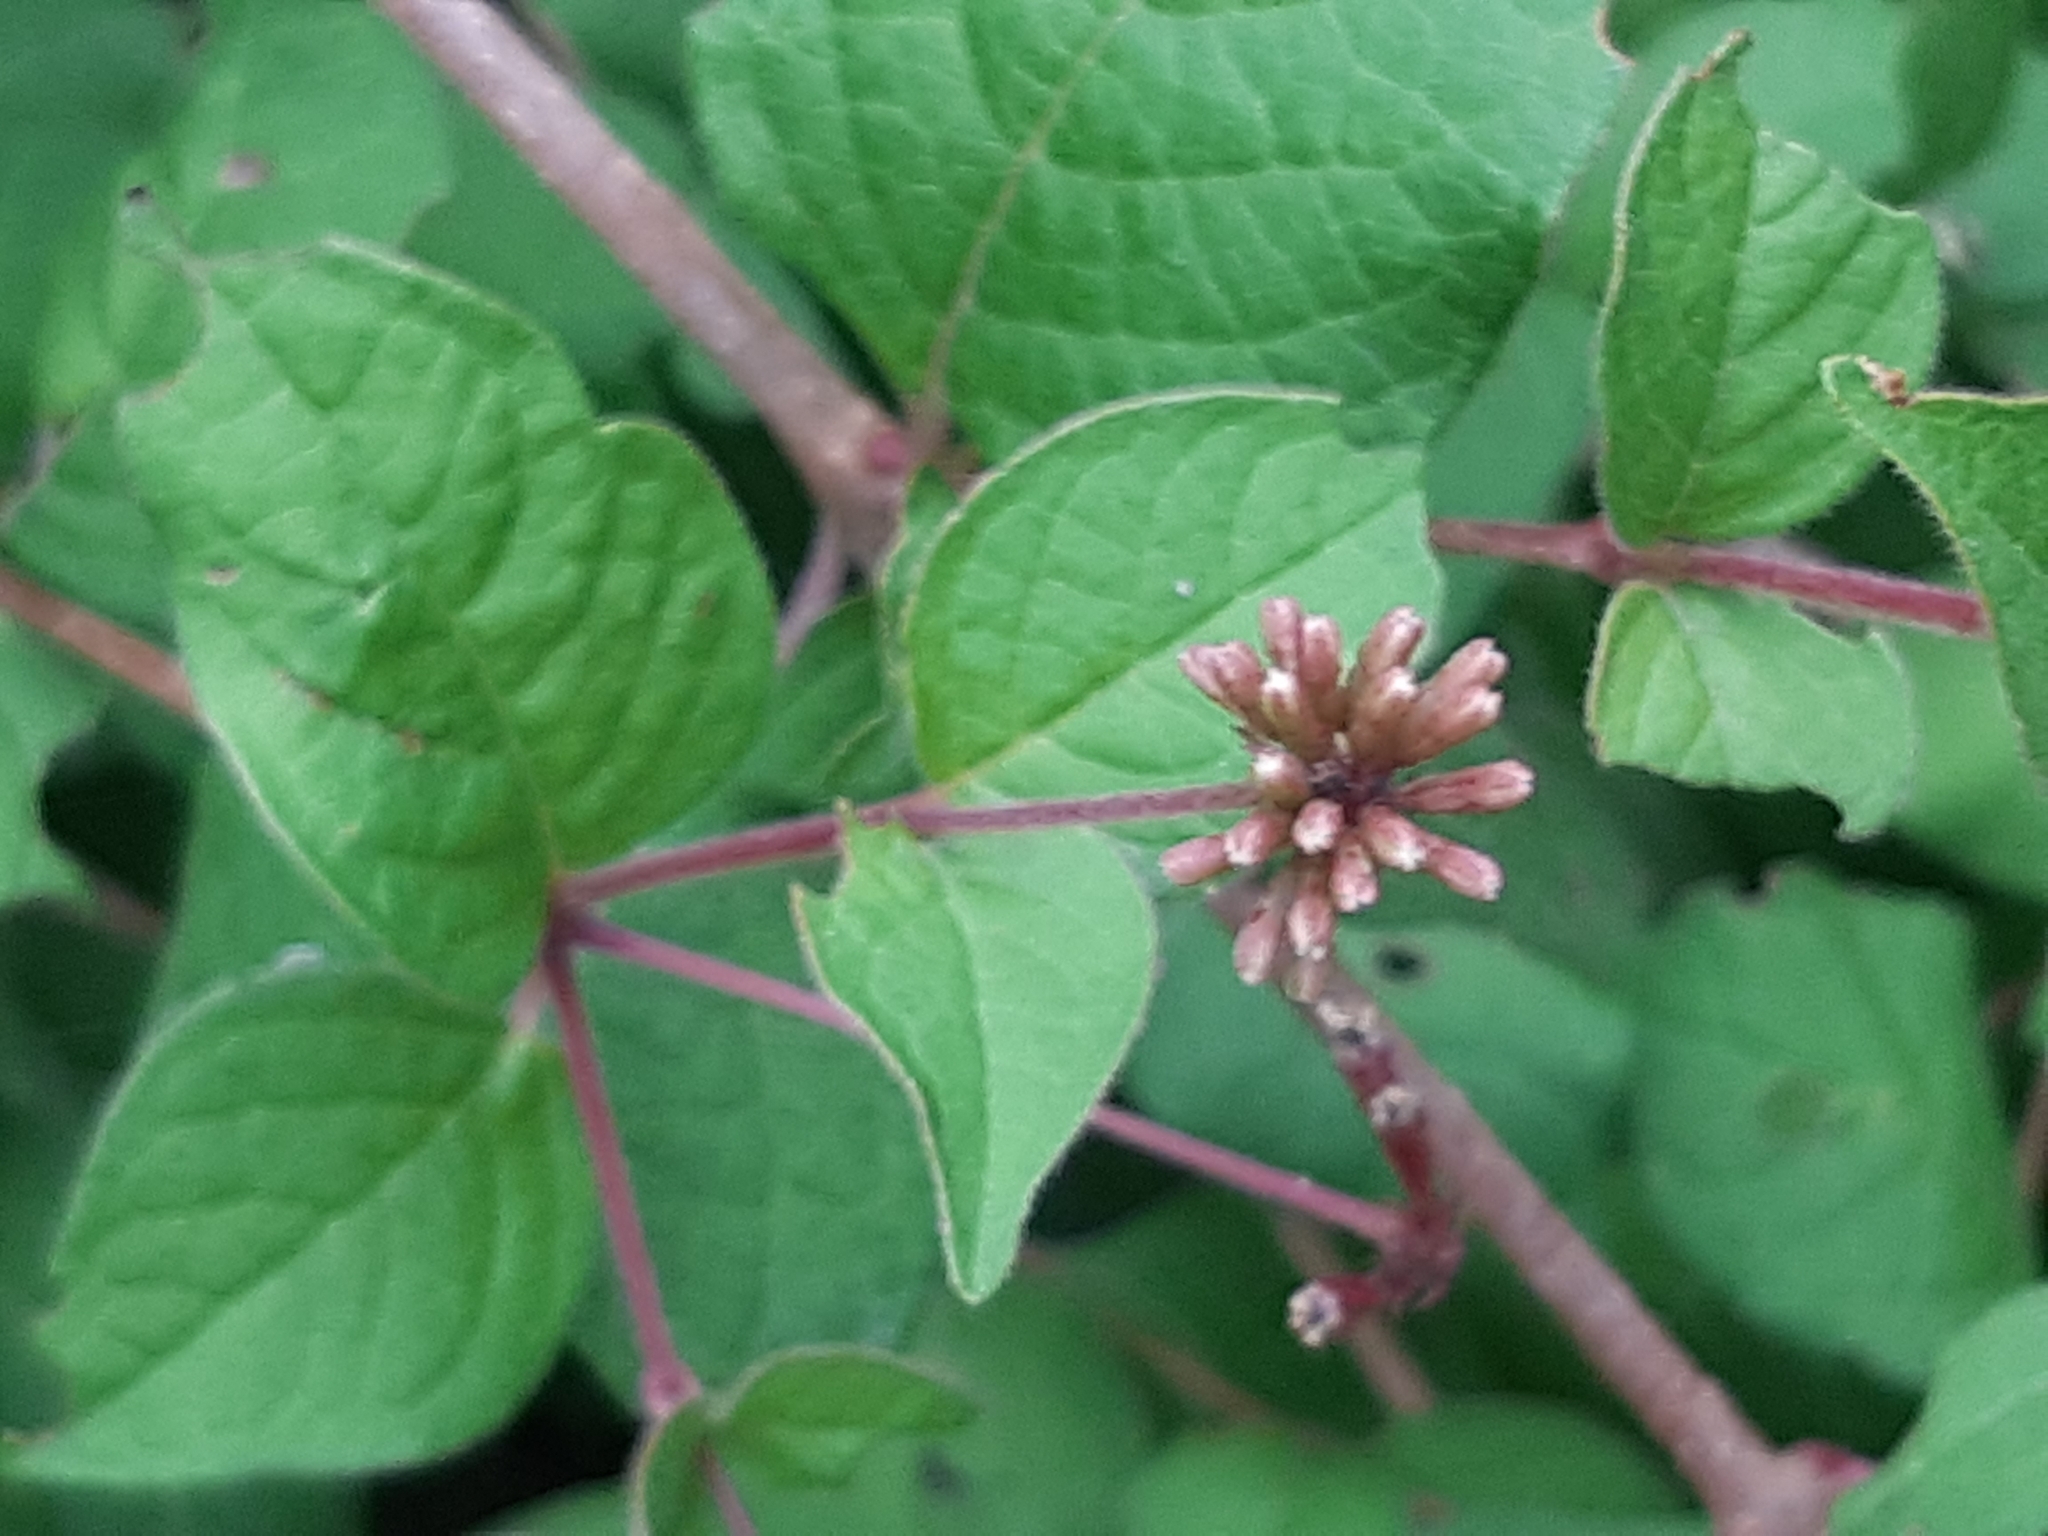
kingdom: Plantae
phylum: Tracheophyta
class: Magnoliopsida
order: Caryophyllales
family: Nyctaginaceae
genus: Pisoniella
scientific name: Pisoniella arborescens
